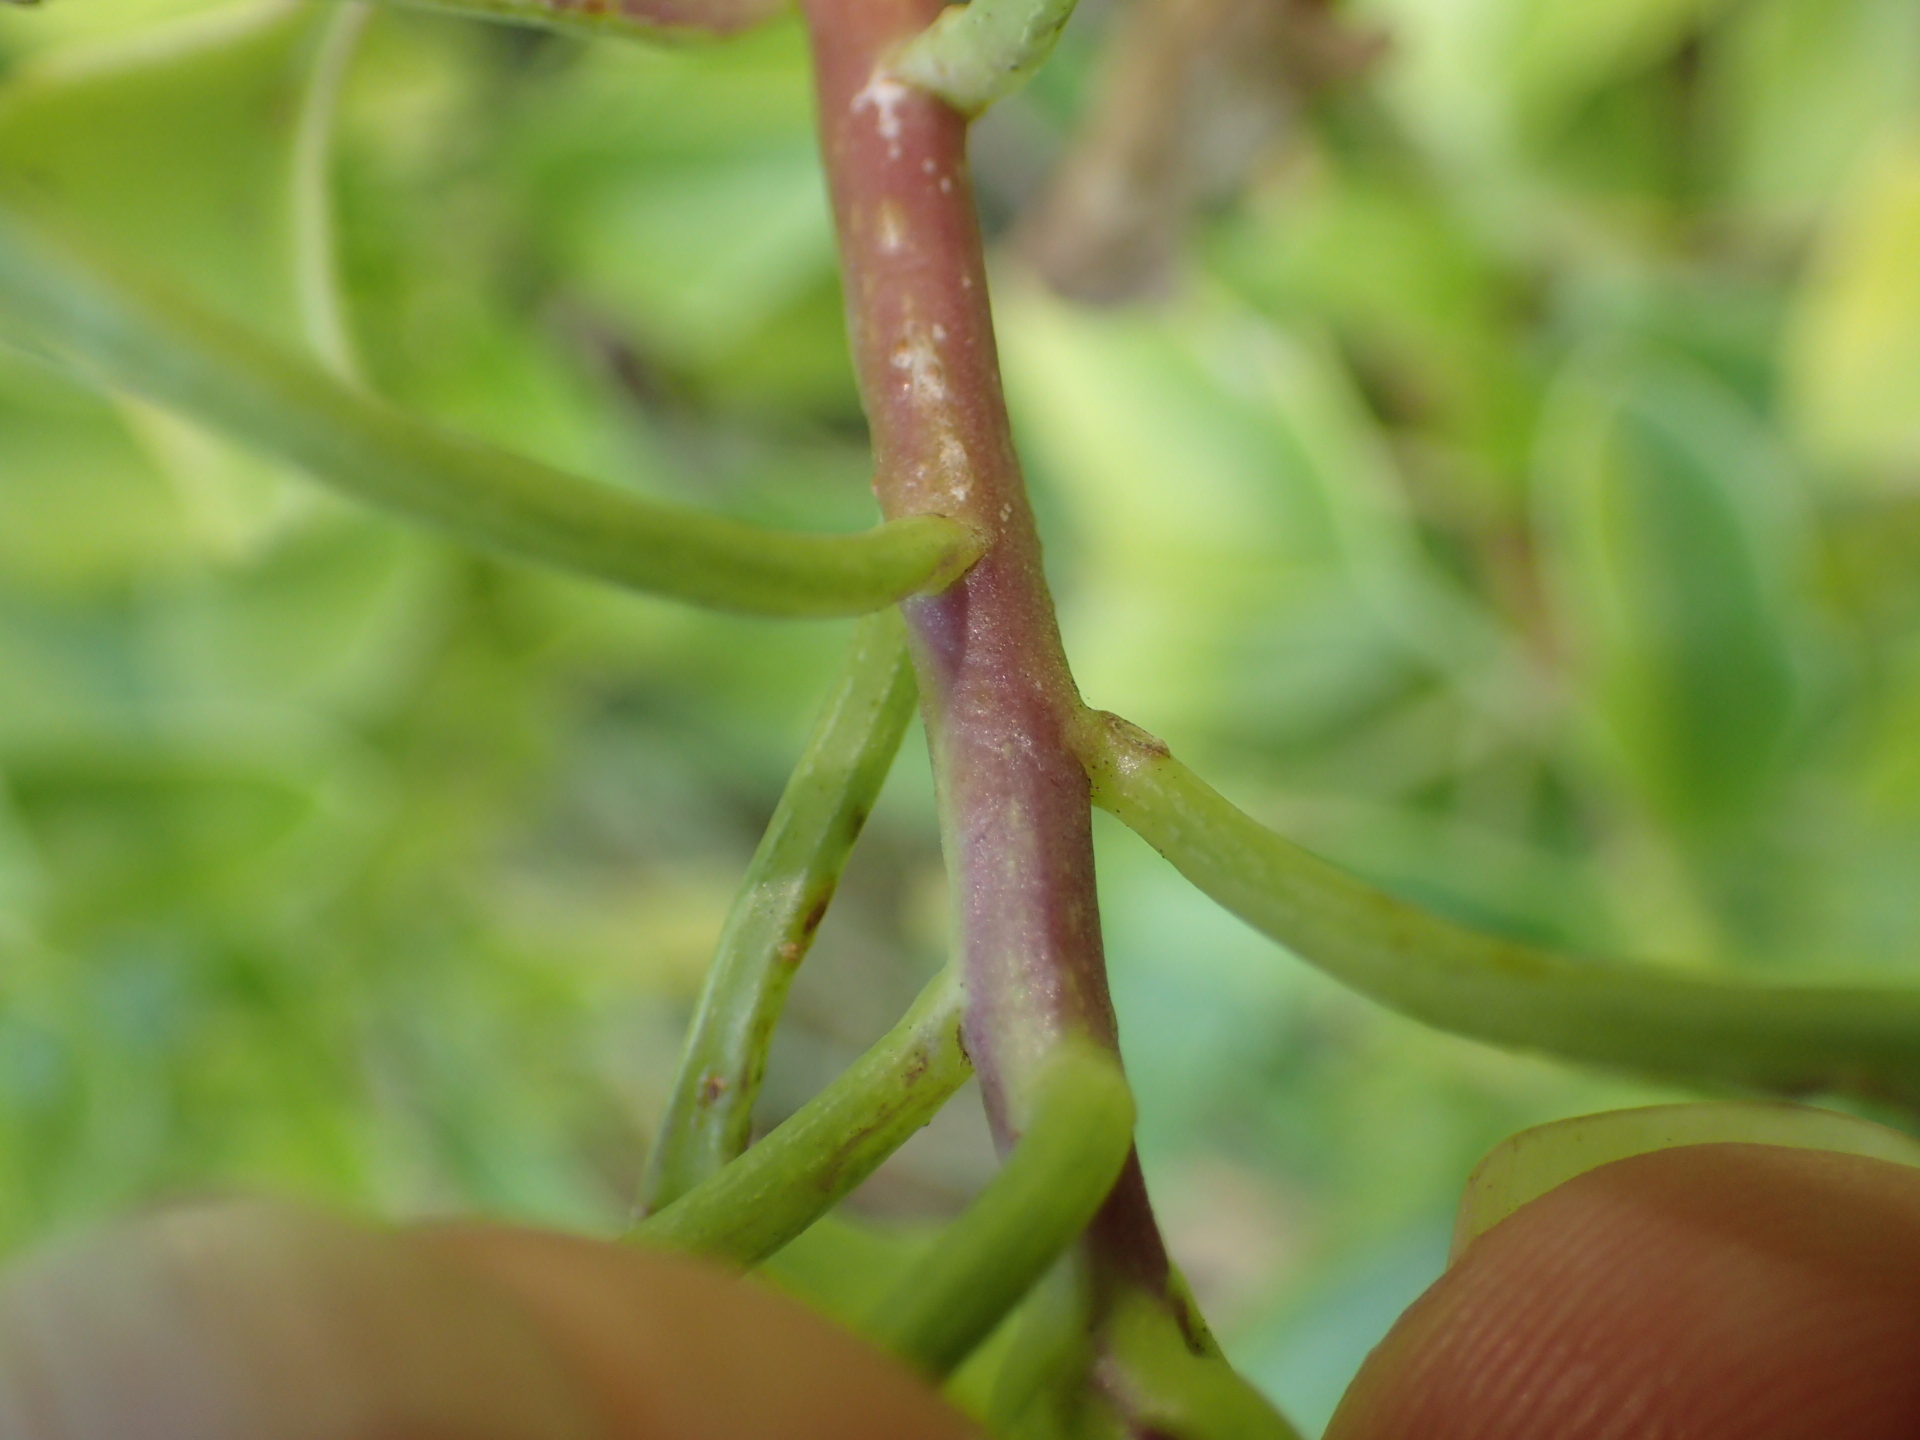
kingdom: Plantae
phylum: Tracheophyta
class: Magnoliopsida
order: Asterales
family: Asteraceae
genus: Senecio
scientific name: Senecio angulatus
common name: Climbing groundsel
